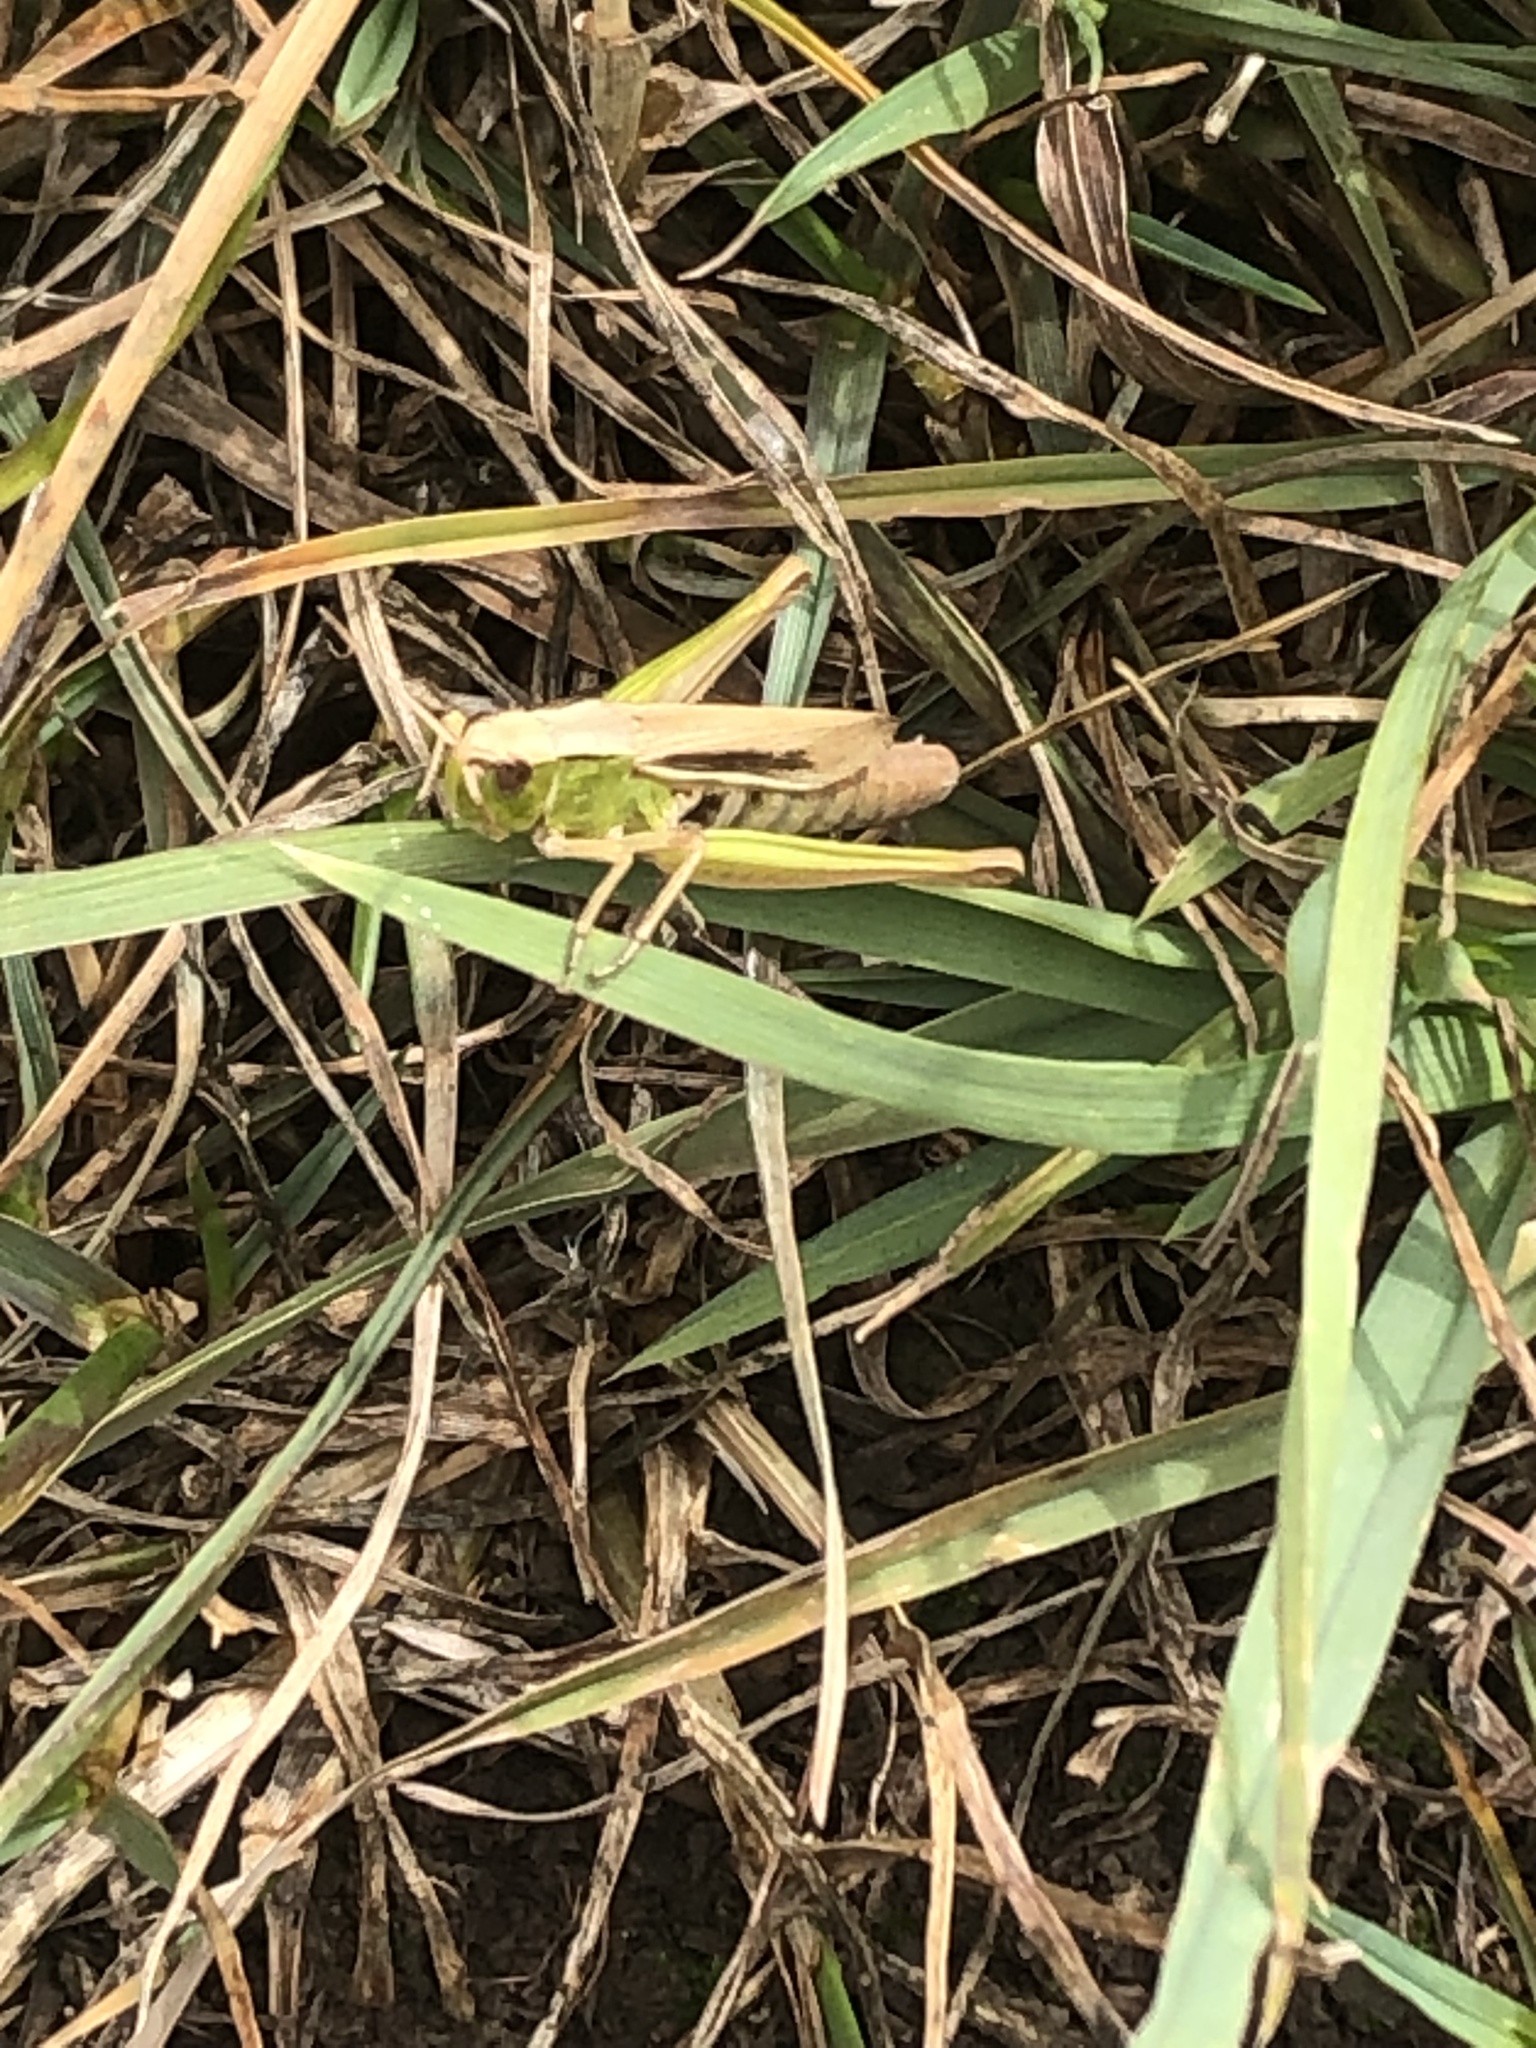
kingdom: Animalia
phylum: Arthropoda
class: Insecta
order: Orthoptera
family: Acrididae
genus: Chorthippus
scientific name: Chorthippus albomarginatus
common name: Lesser marsh grasshopper
